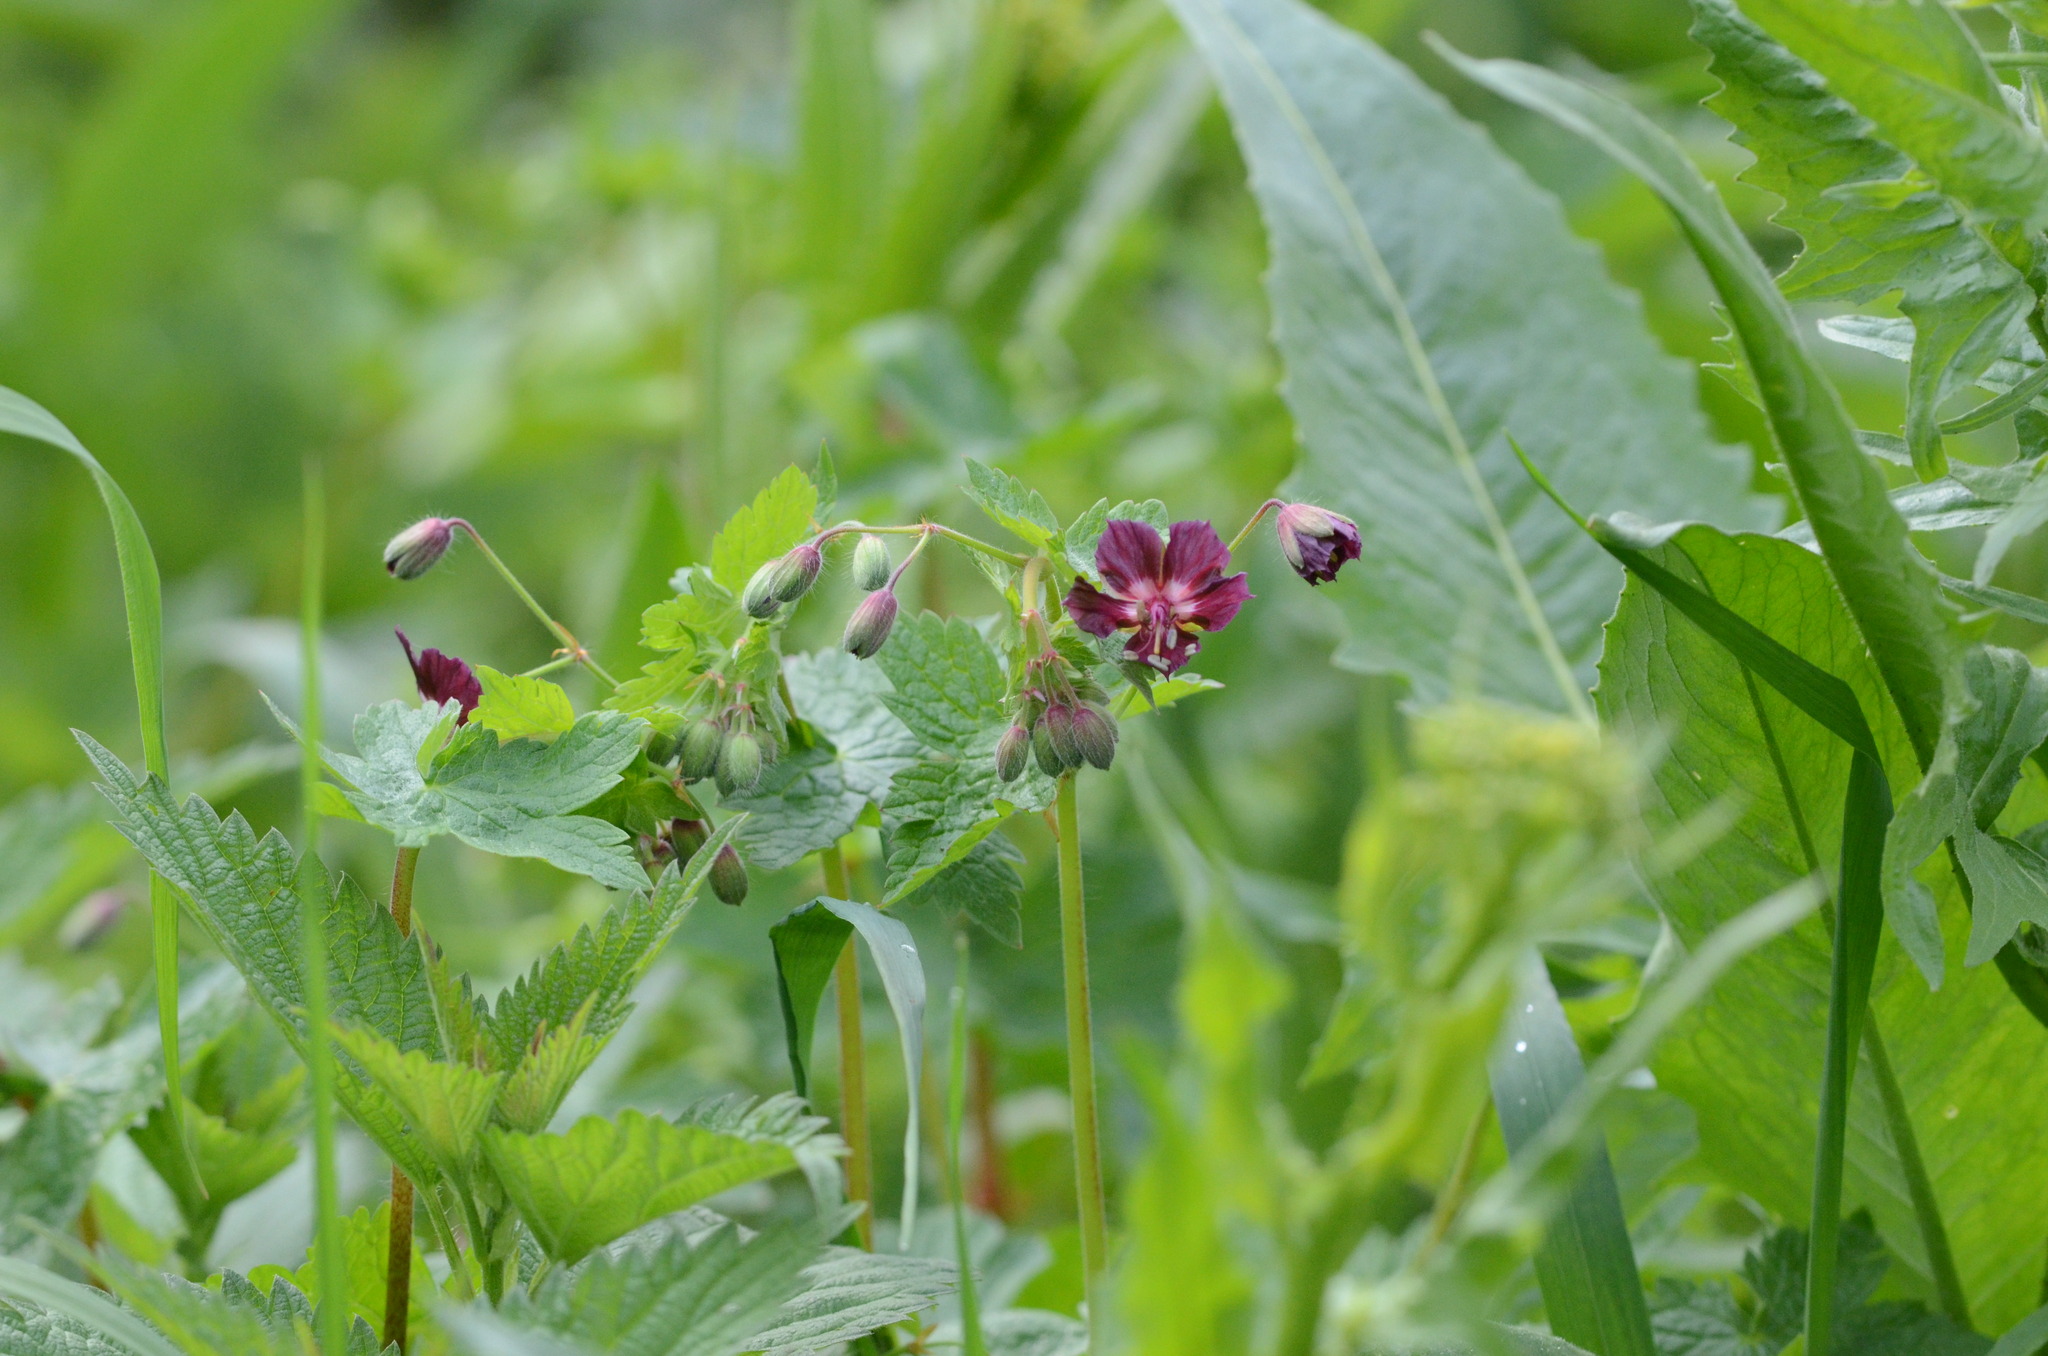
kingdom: Plantae
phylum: Tracheophyta
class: Magnoliopsida
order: Geraniales
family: Geraniaceae
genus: Geranium
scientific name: Geranium phaeum
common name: Dusky crane's-bill
